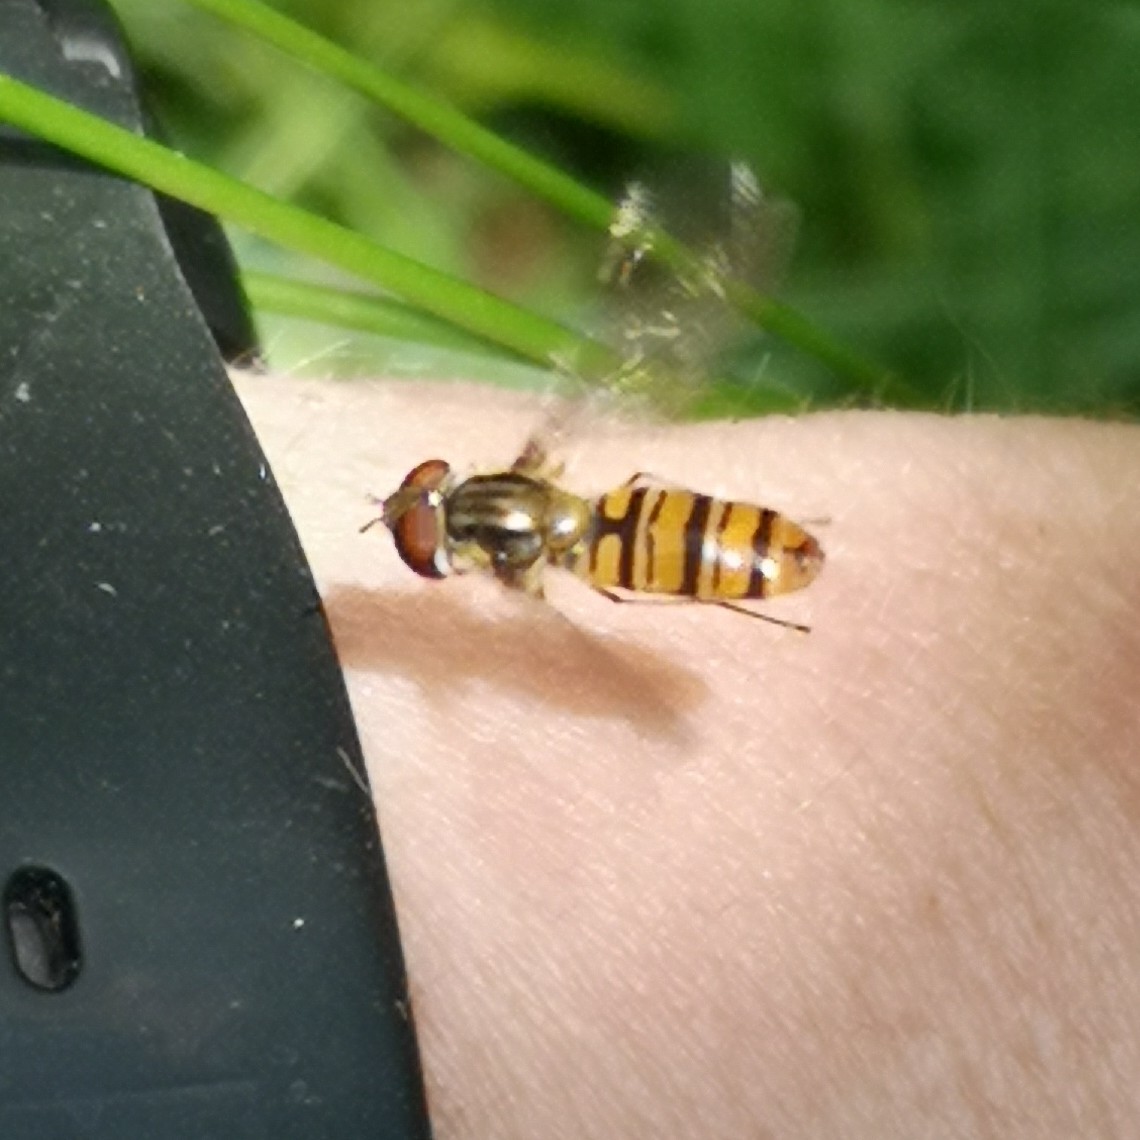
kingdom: Animalia
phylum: Arthropoda
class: Insecta
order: Diptera
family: Syrphidae
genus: Episyrphus
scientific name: Episyrphus balteatus
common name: Marmalade hoverfly
